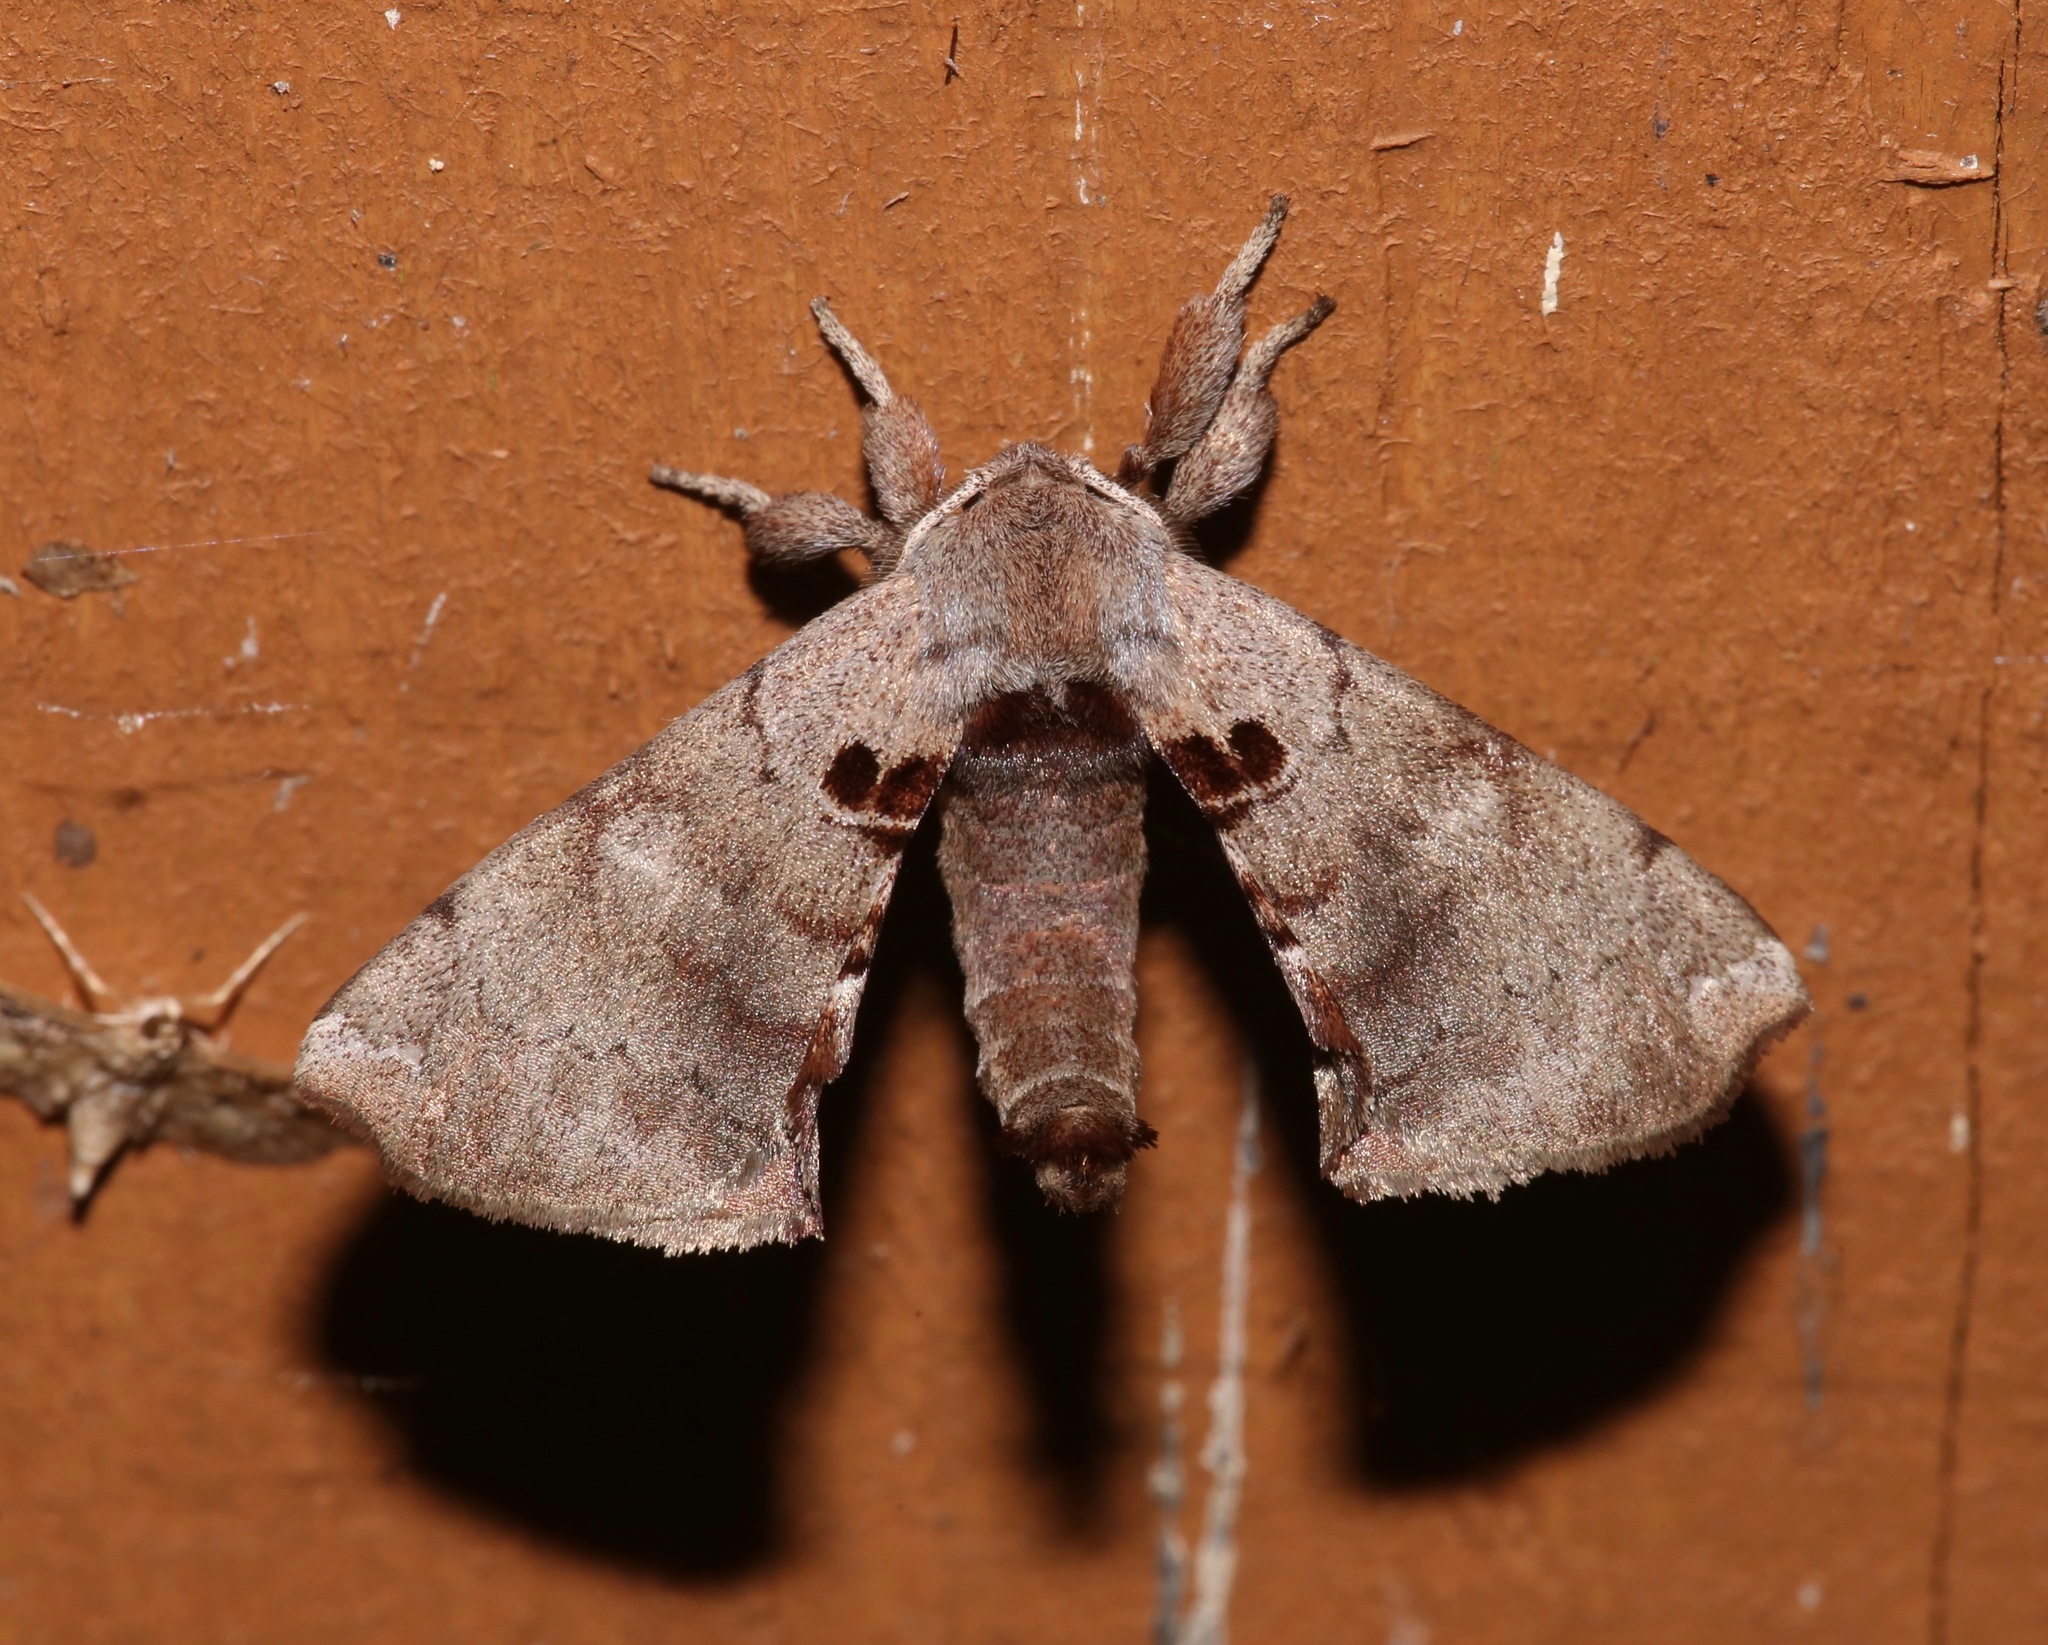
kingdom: Animalia
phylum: Arthropoda
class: Insecta
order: Lepidoptera
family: Apatelodidae
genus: Hygrochroa
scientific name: Hygrochroa Apatelodes torrefacta
